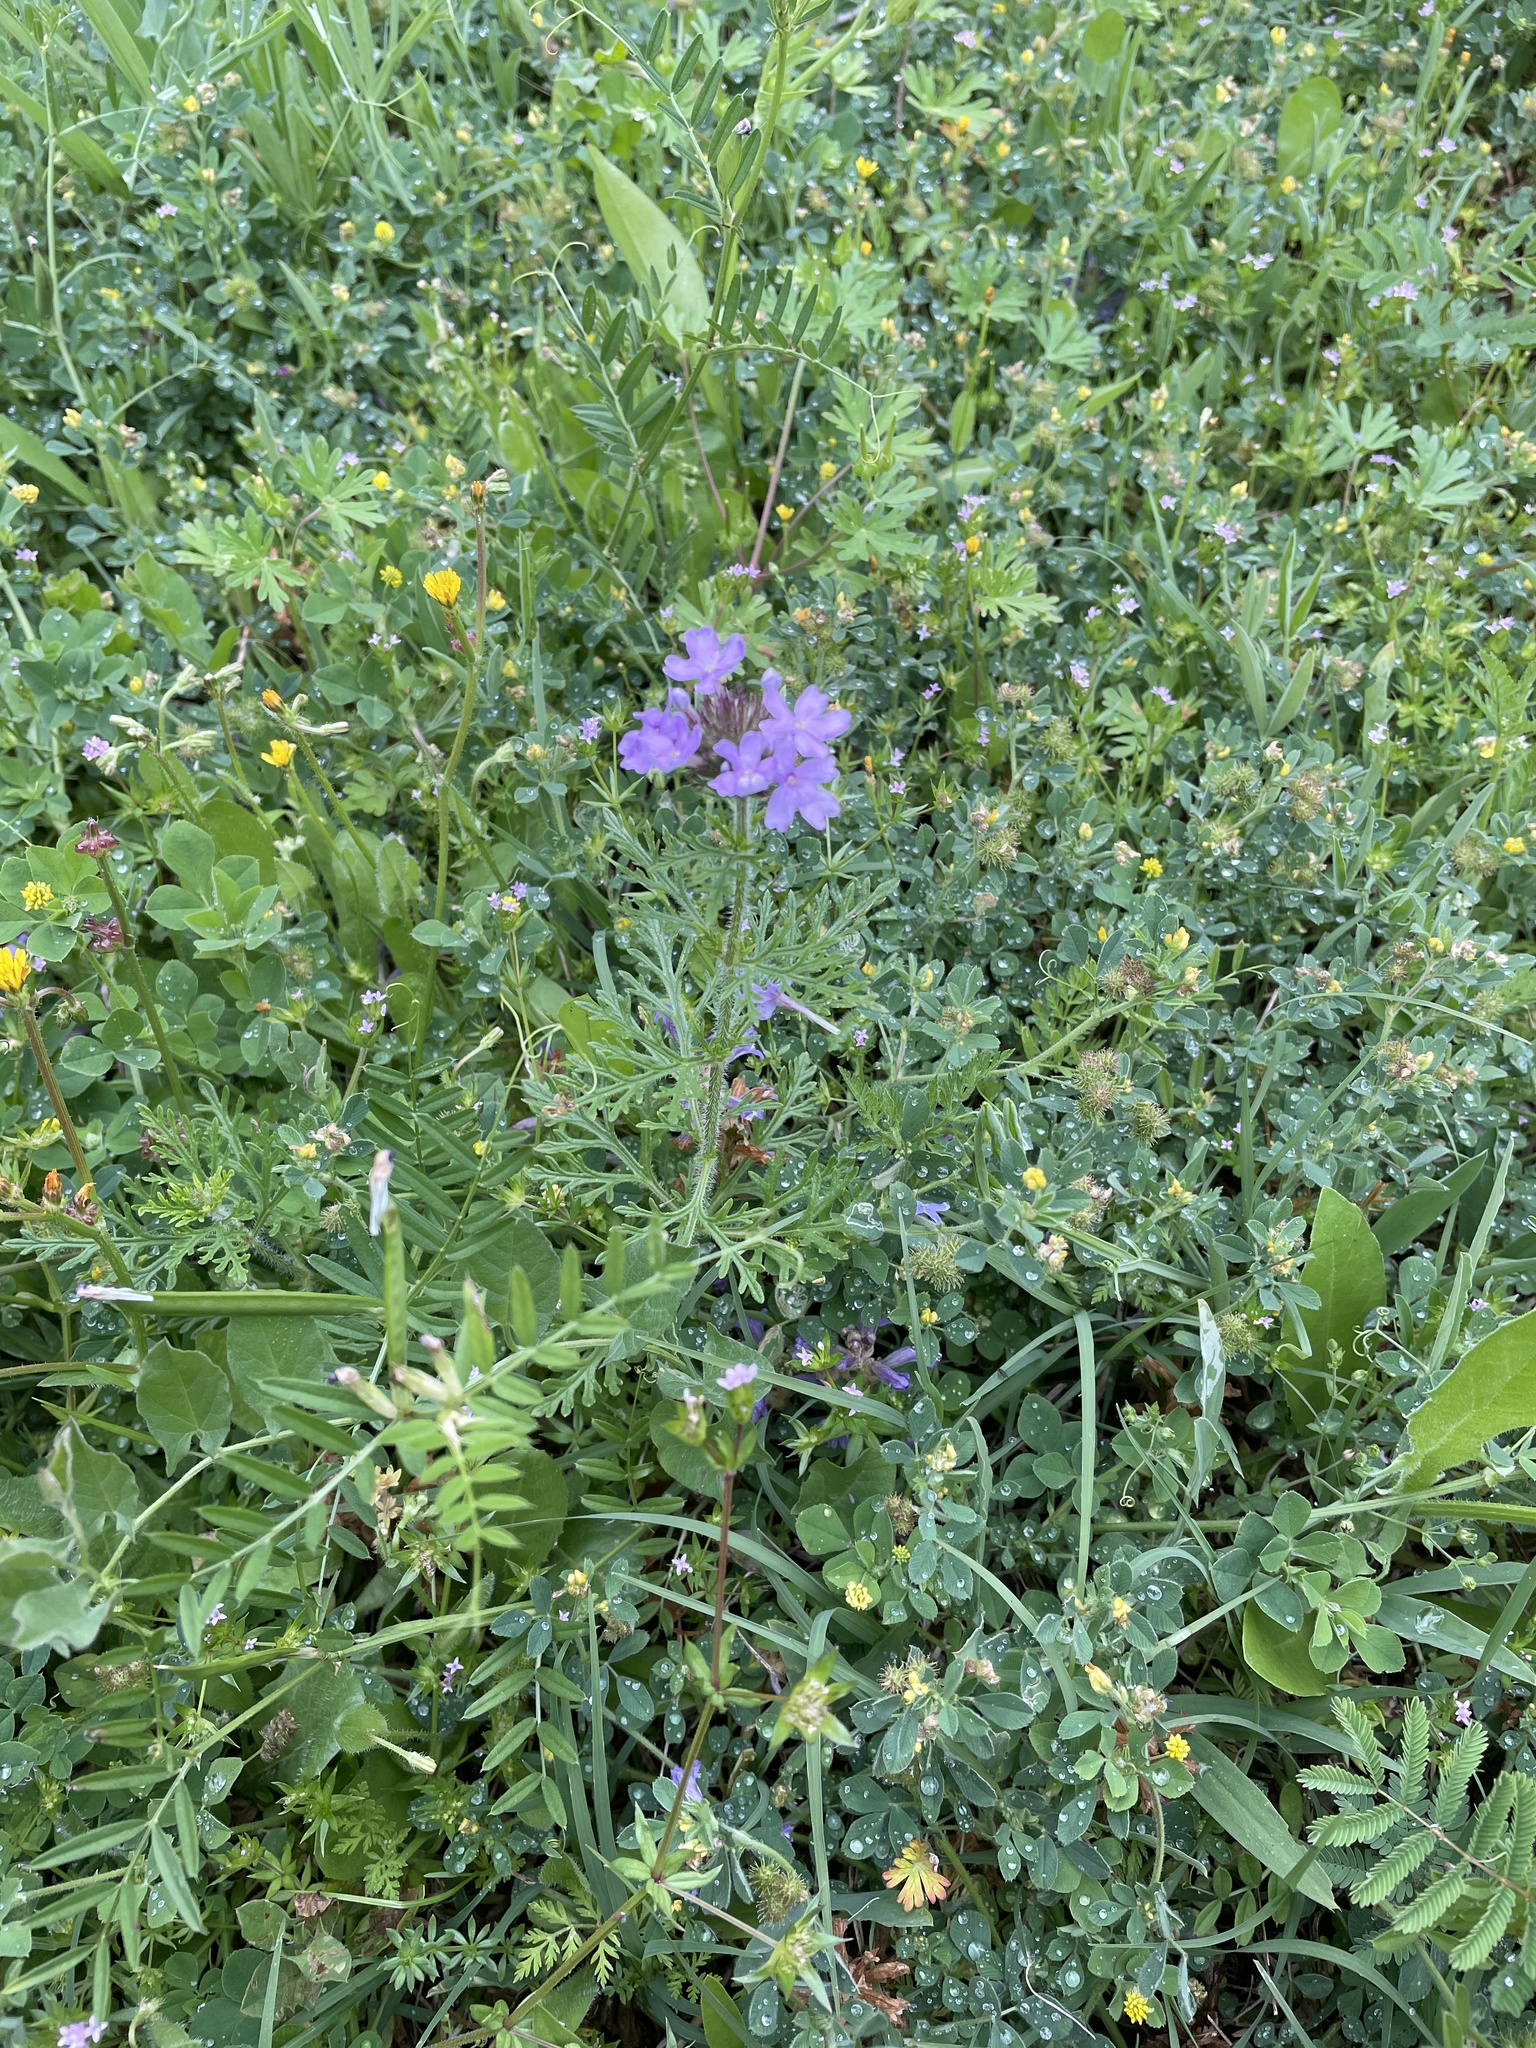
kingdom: Plantae
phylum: Tracheophyta
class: Magnoliopsida
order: Lamiales
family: Verbenaceae
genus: Verbena
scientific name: Verbena bipinnatifida
